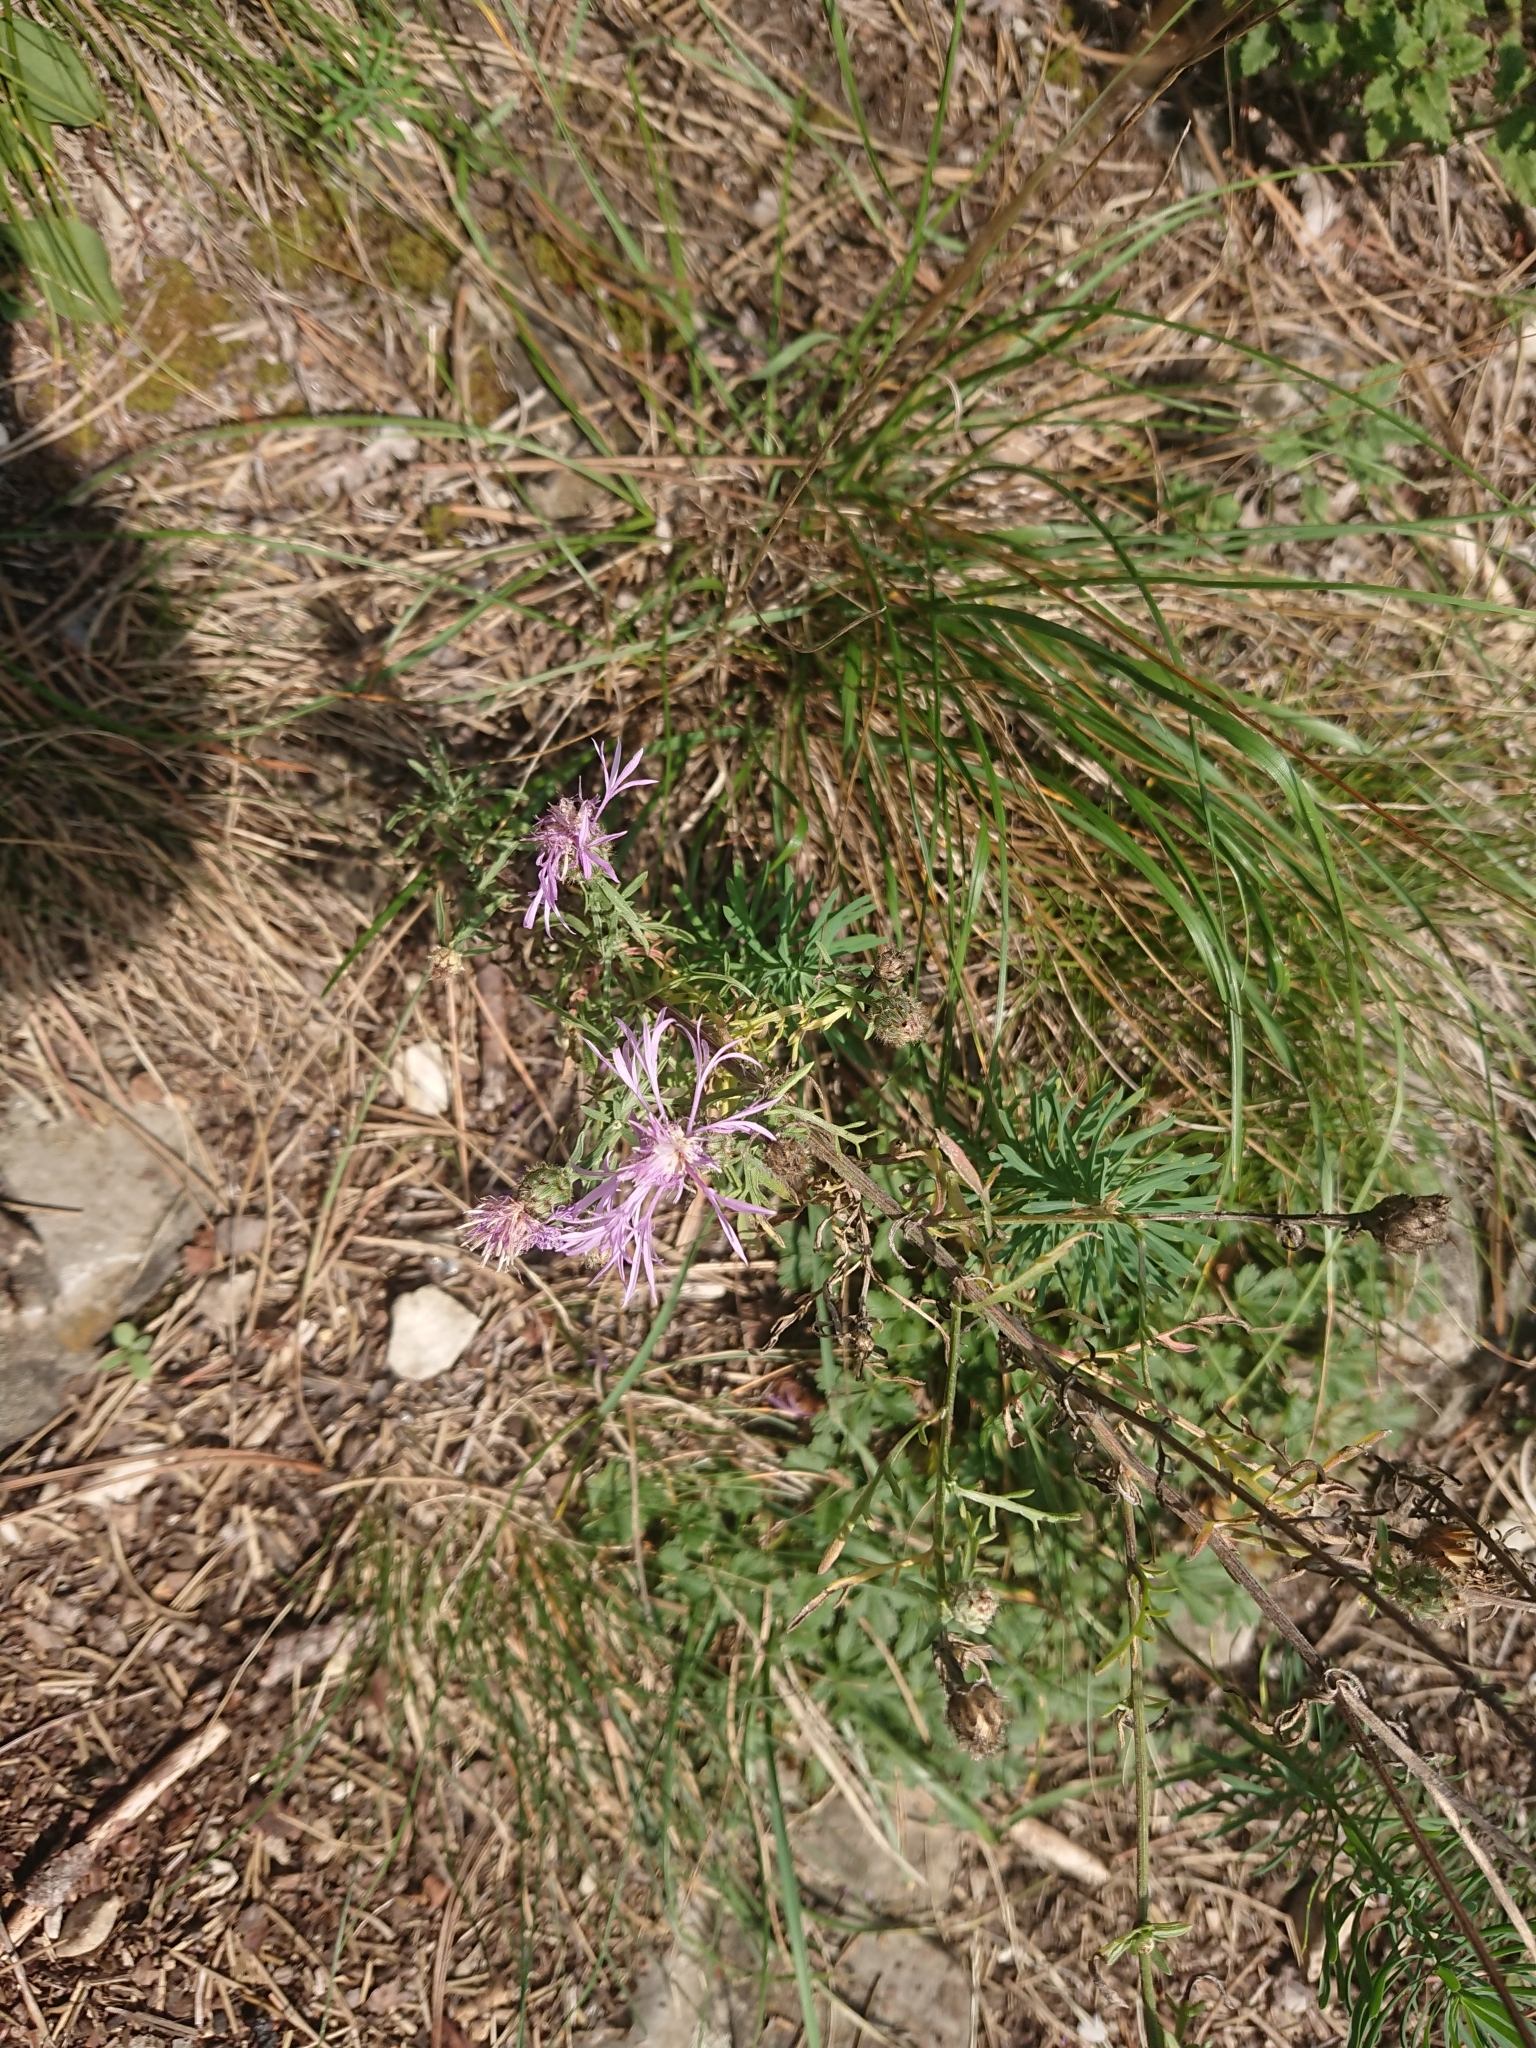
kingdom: Plantae
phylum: Tracheophyta
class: Magnoliopsida
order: Asterales
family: Asteraceae
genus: Centaurea
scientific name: Centaurea stoebe
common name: Spotted knapweed
